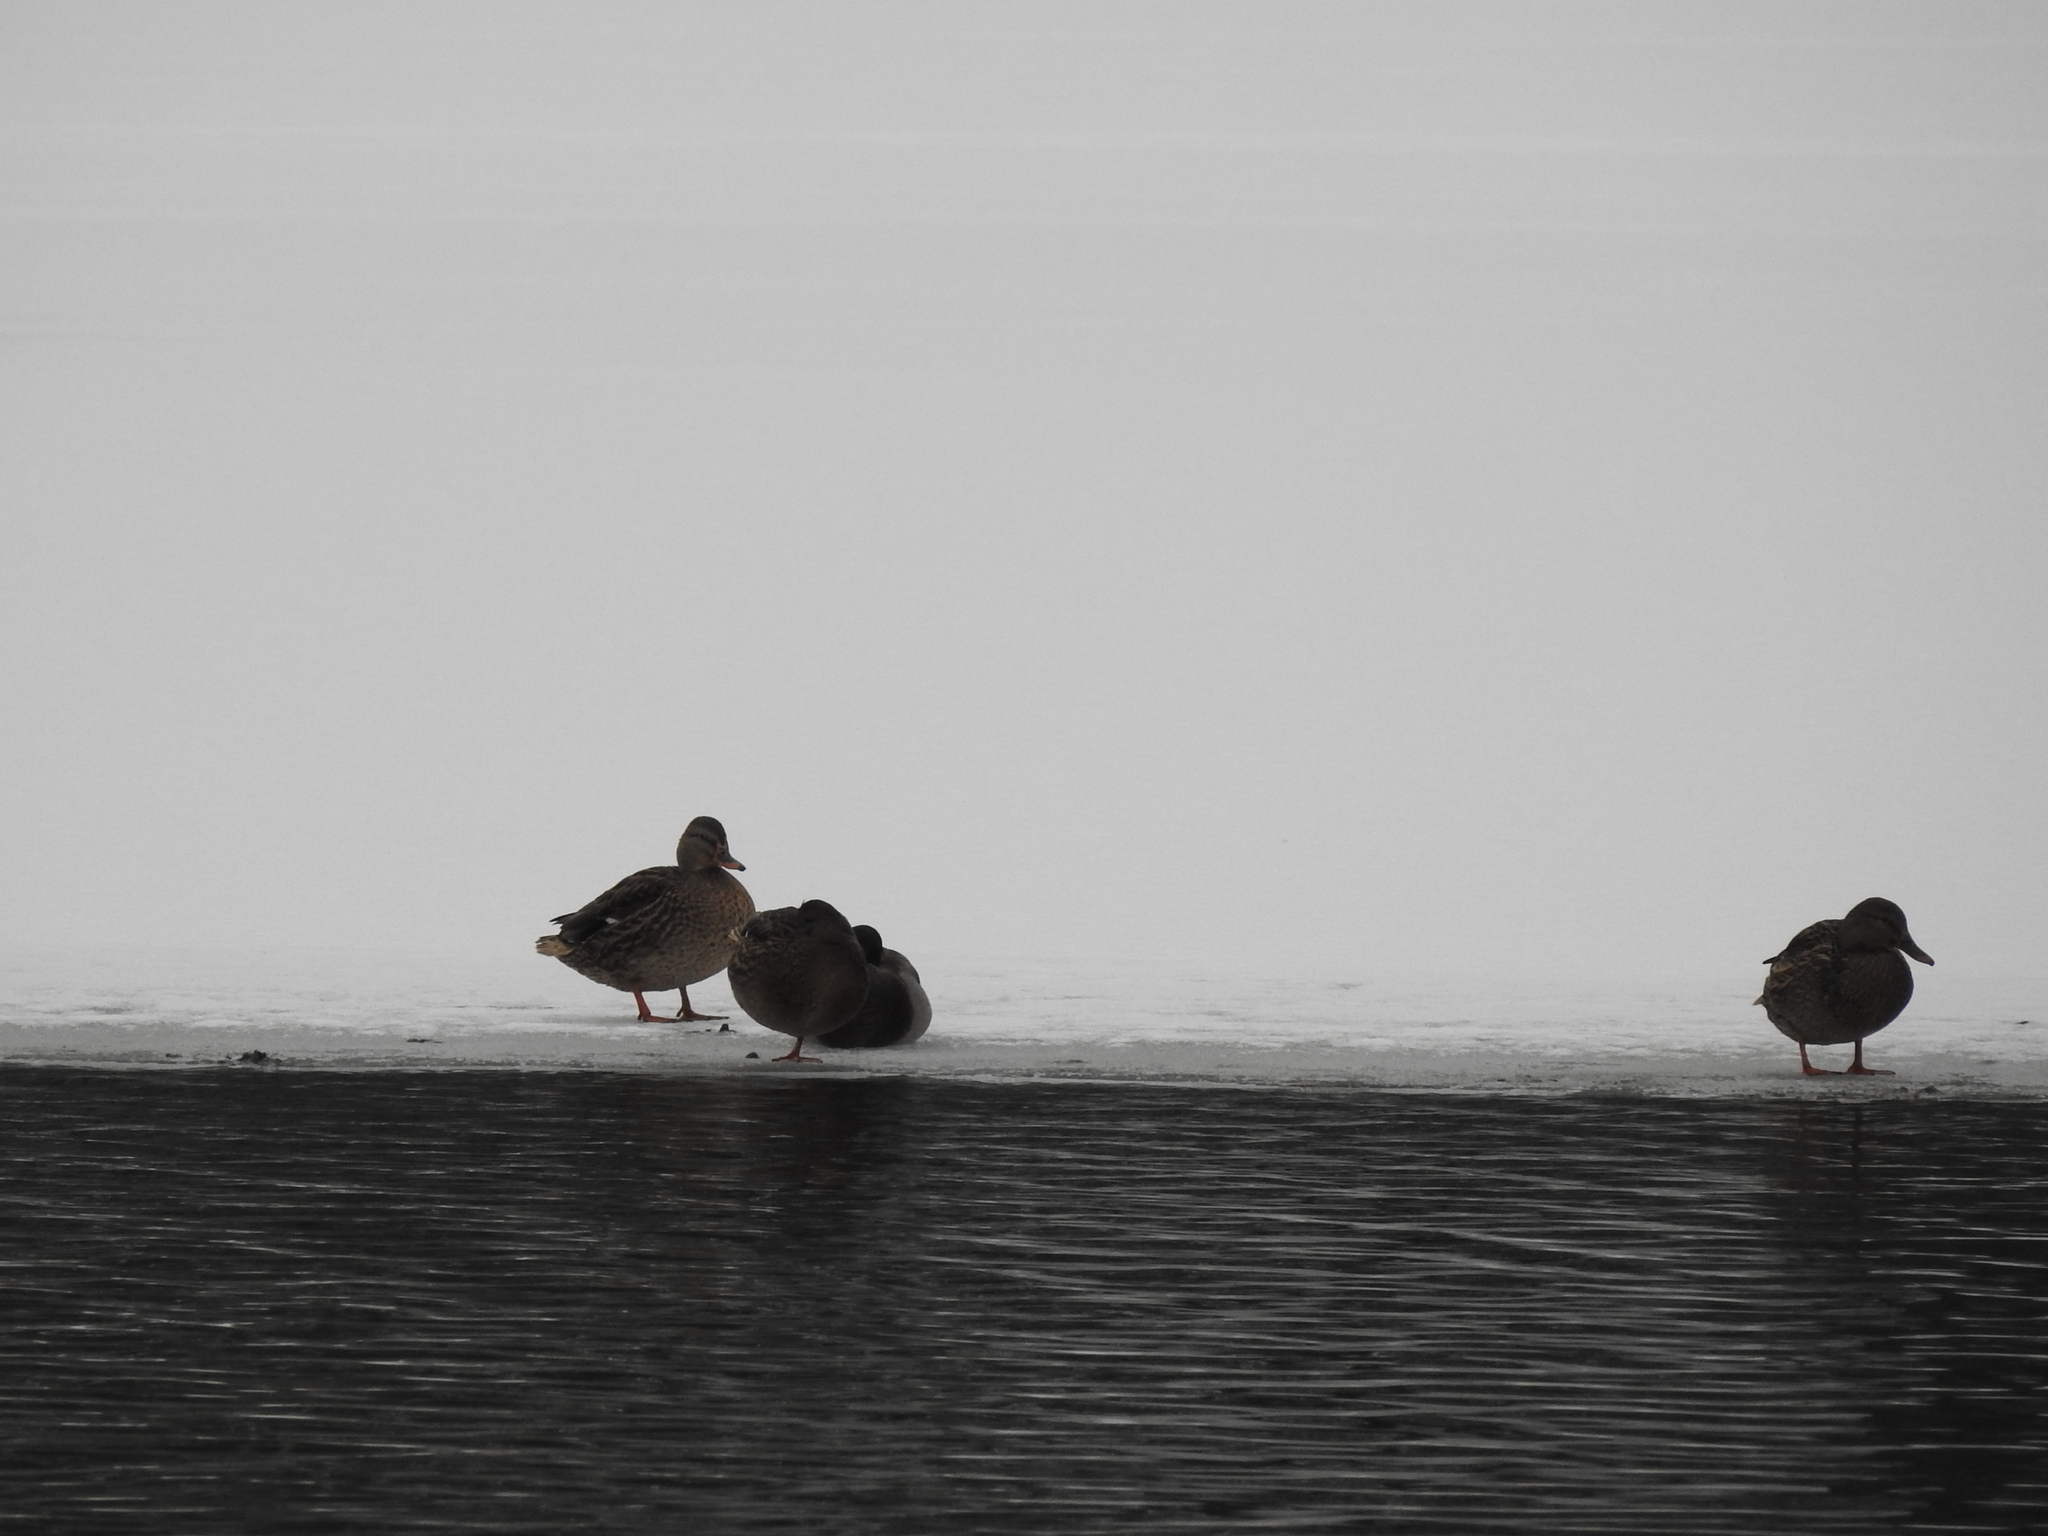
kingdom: Animalia
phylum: Chordata
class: Aves
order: Anseriformes
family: Anatidae
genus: Anas
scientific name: Anas platyrhynchos
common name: Mallard
